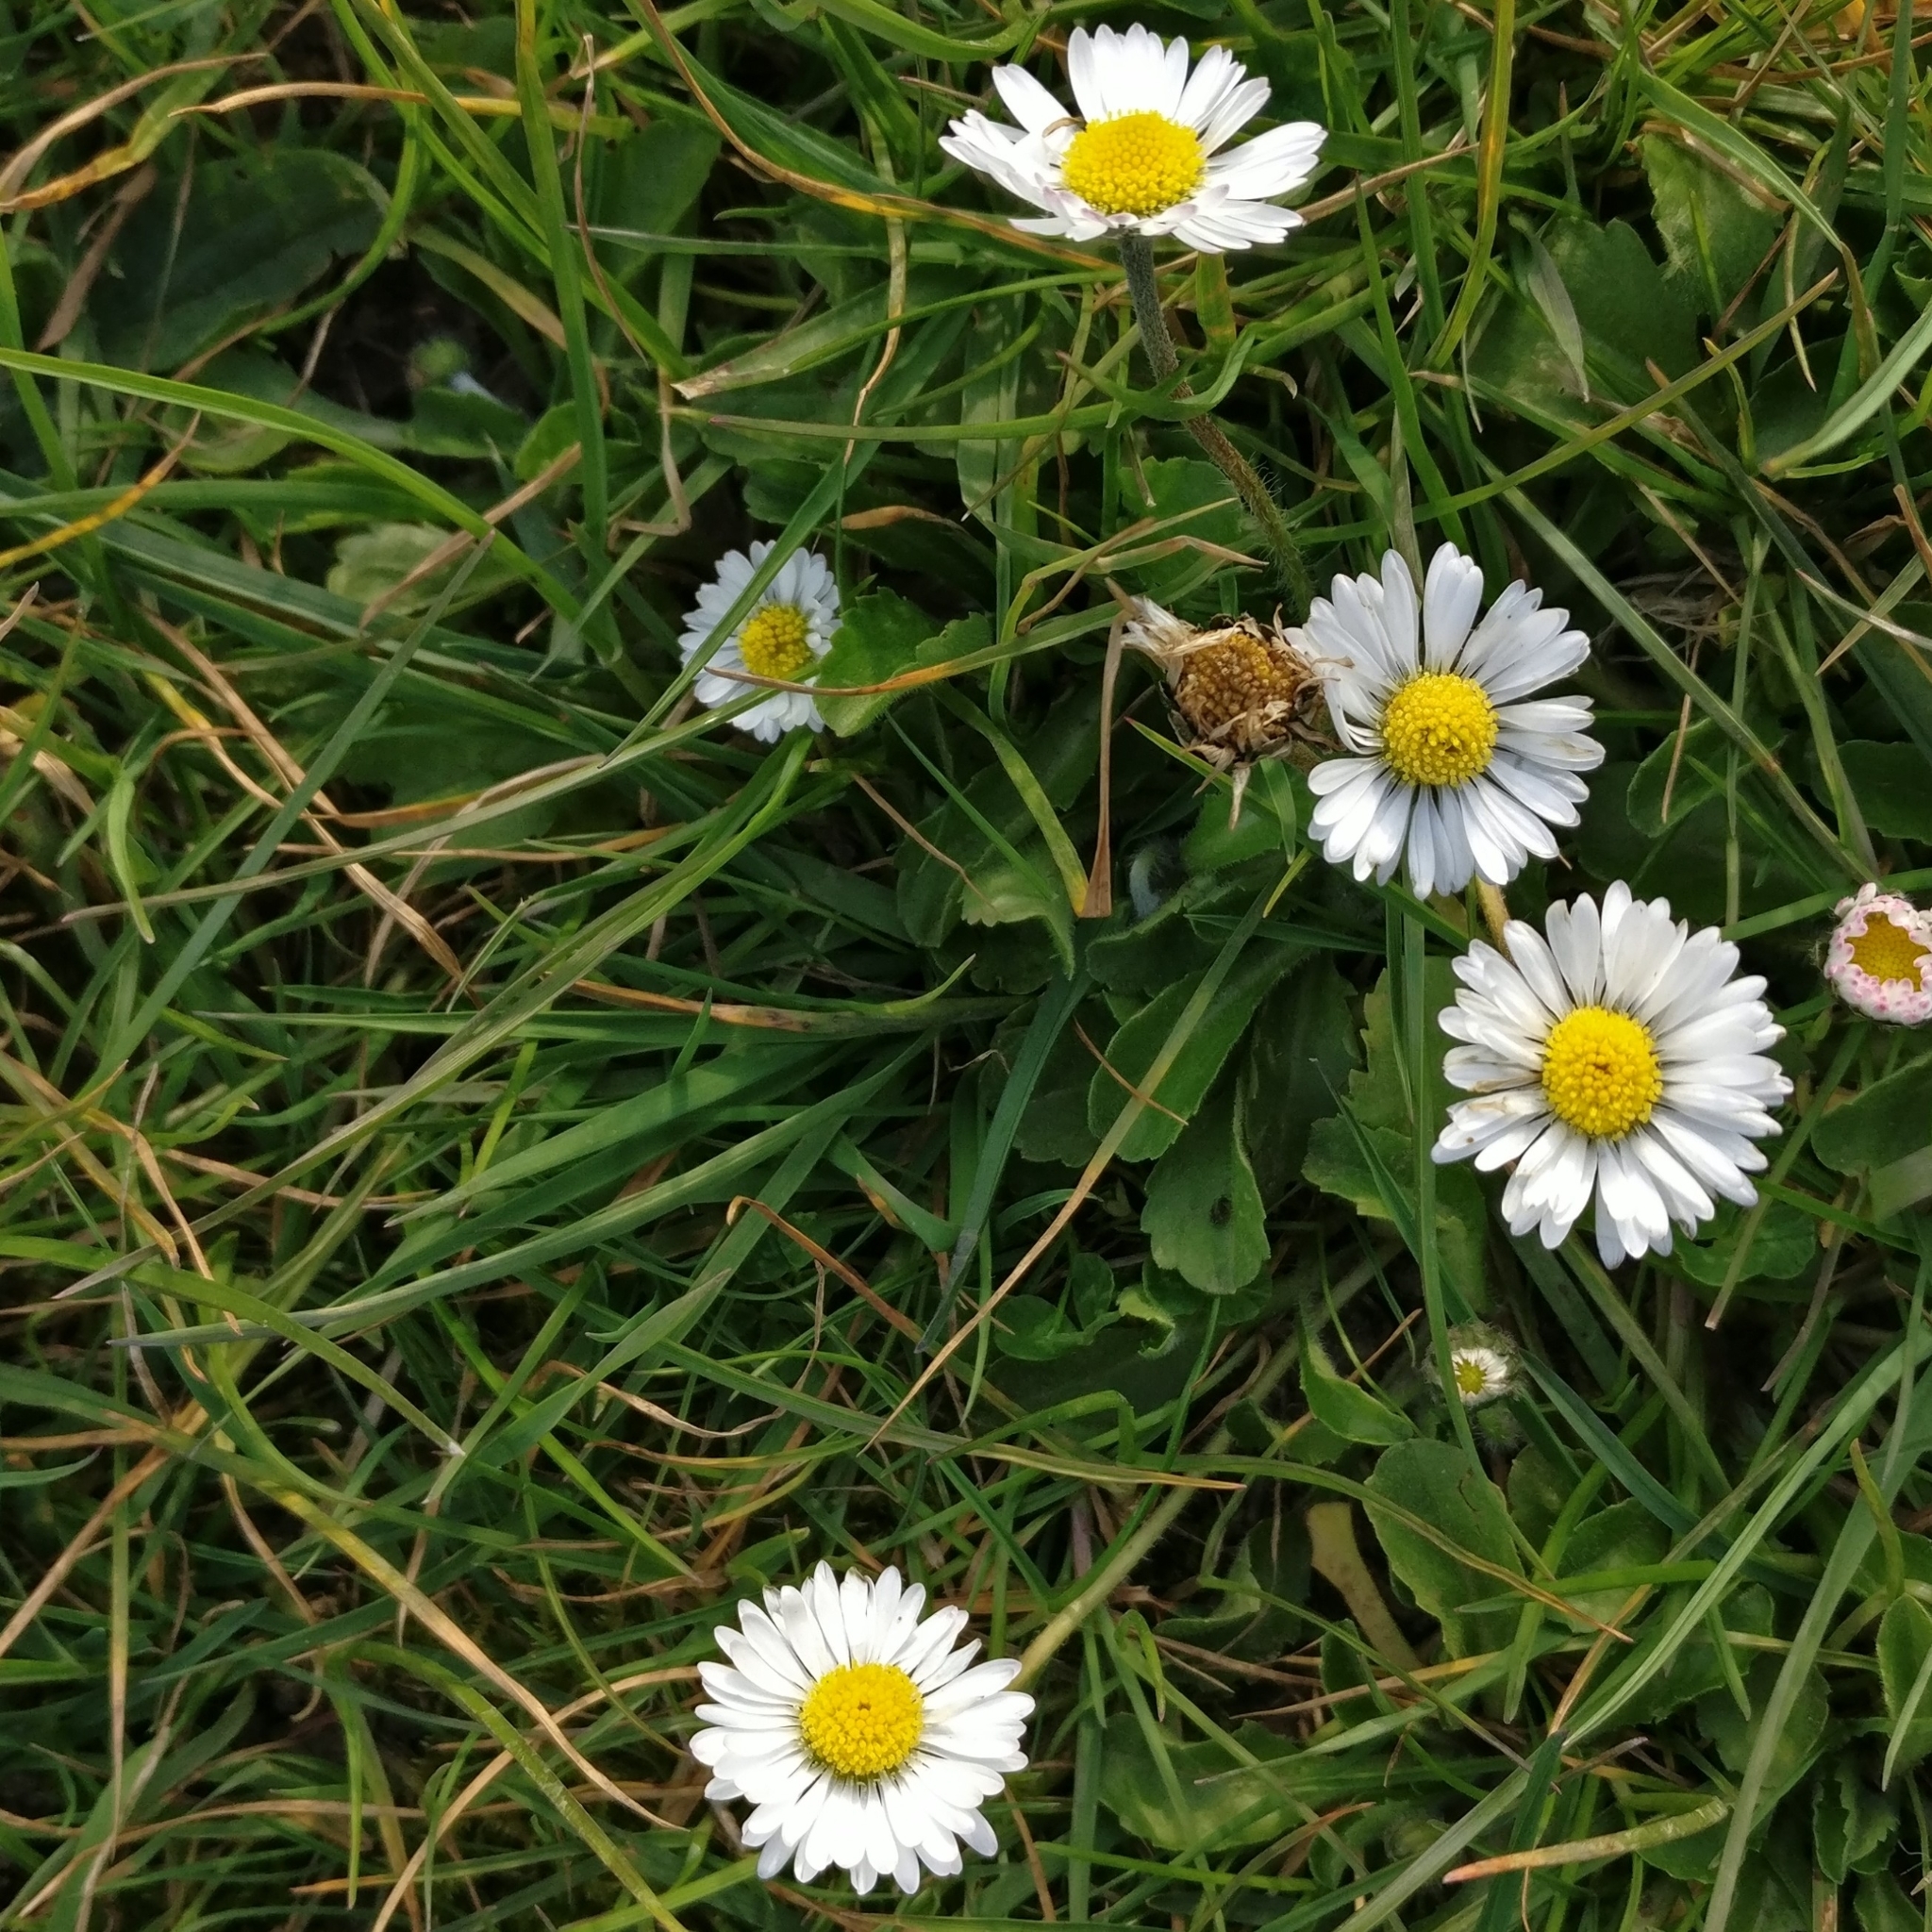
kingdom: Plantae
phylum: Tracheophyta
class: Magnoliopsida
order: Asterales
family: Asteraceae
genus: Bellis
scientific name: Bellis perennis
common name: Lawndaisy
